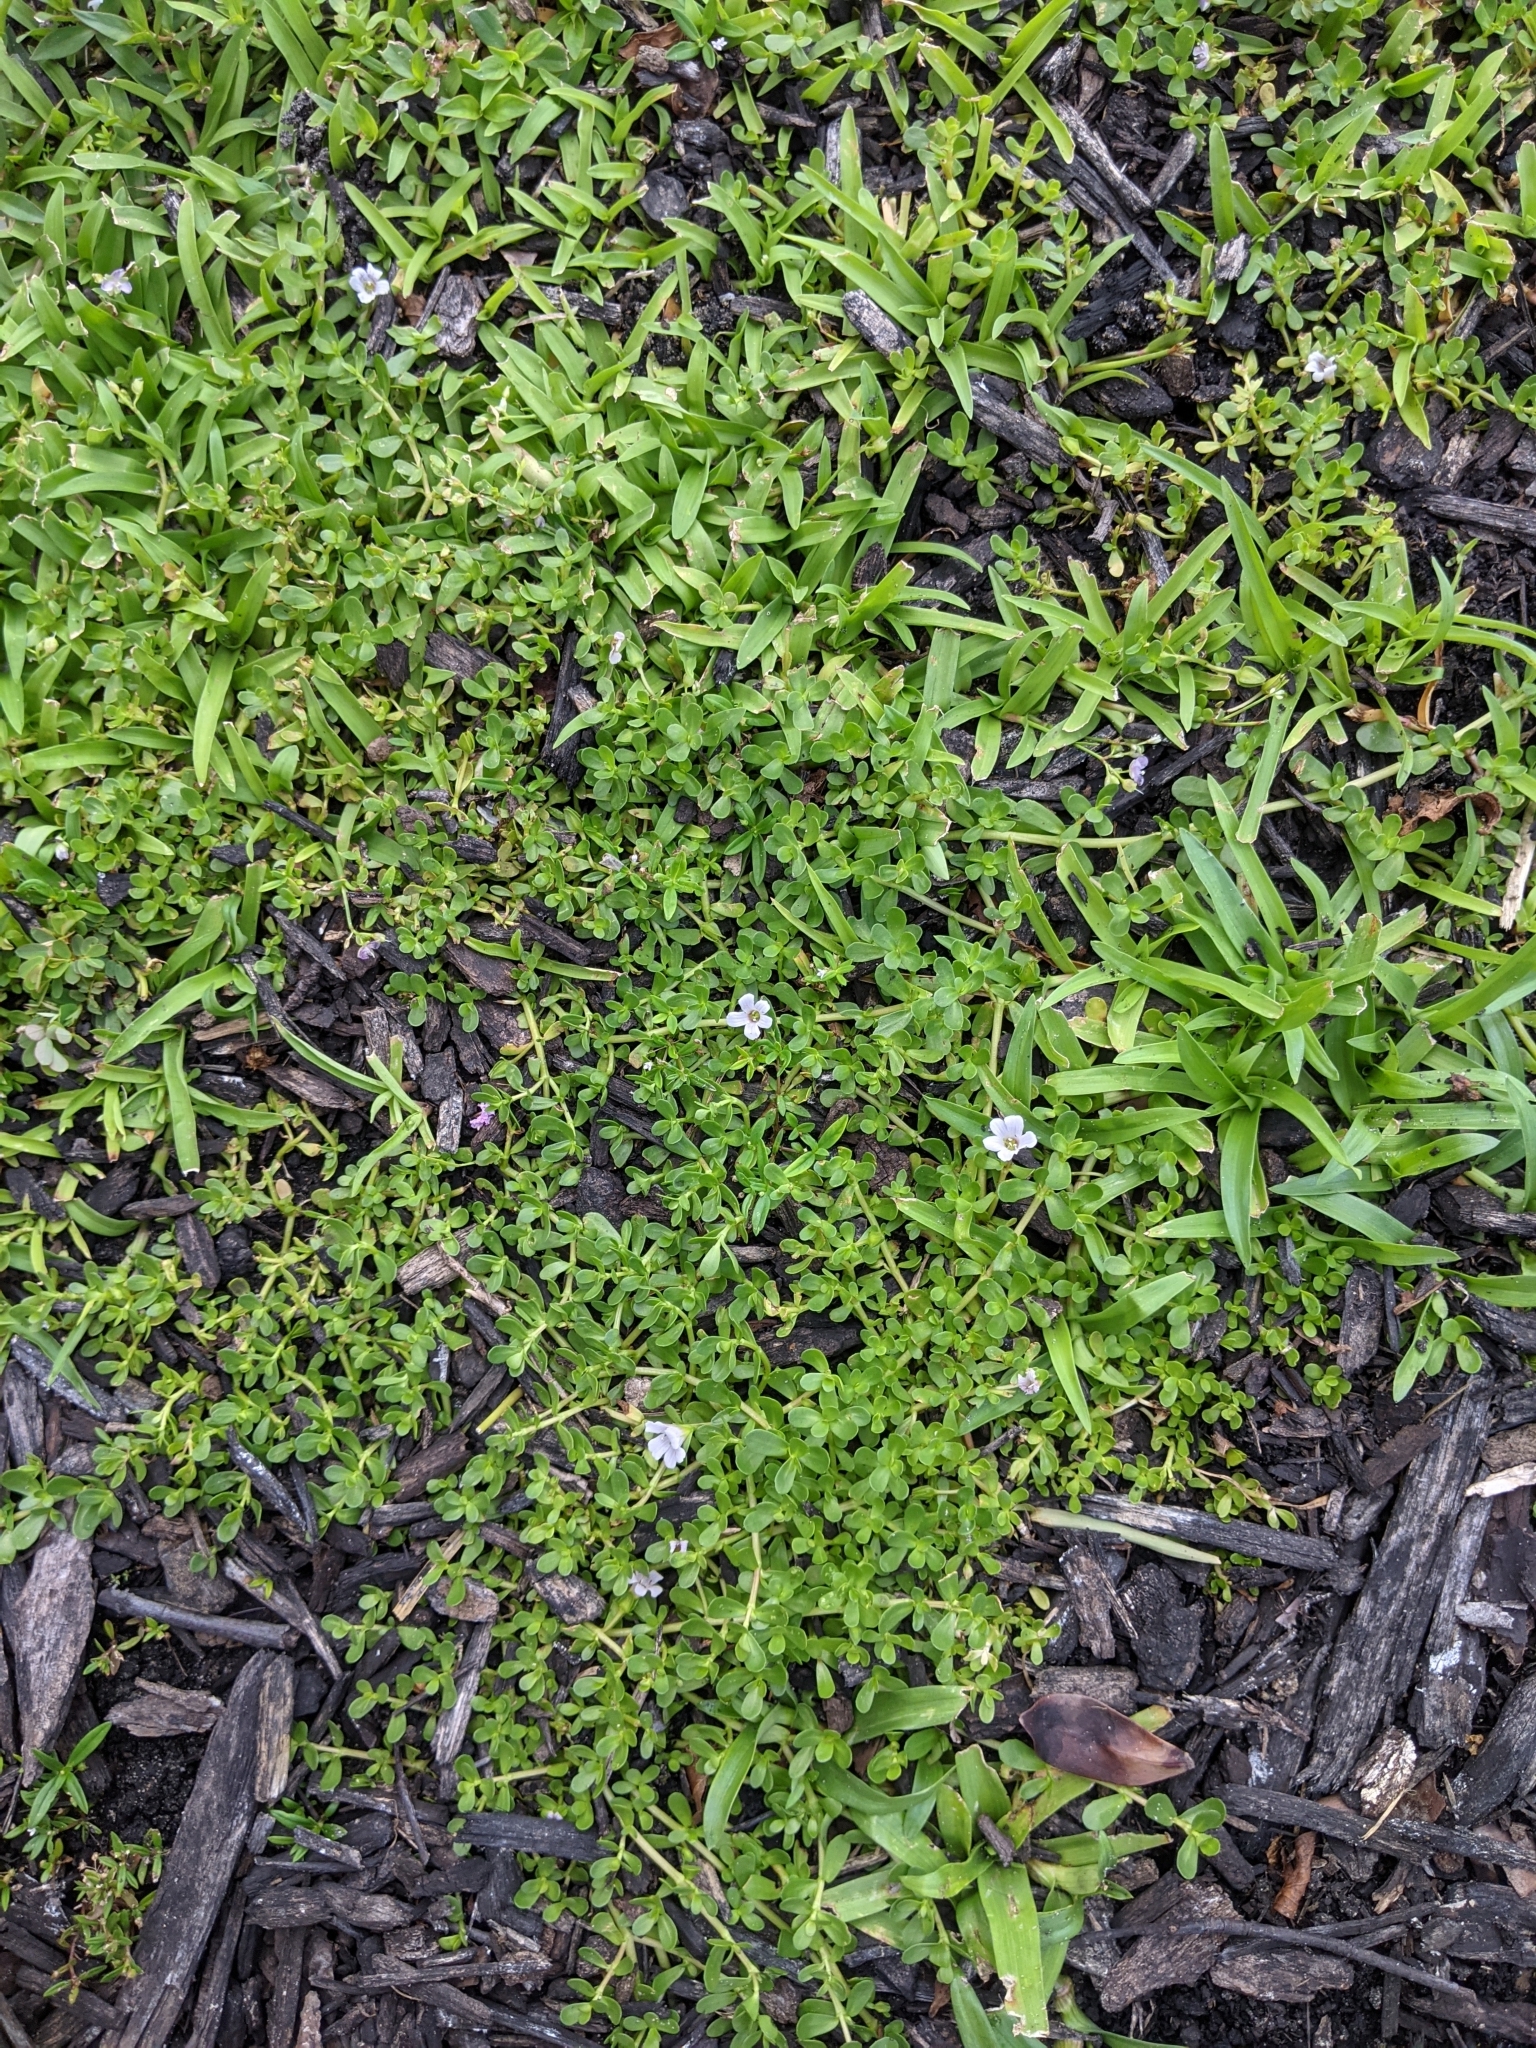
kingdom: Plantae
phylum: Tracheophyta
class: Magnoliopsida
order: Lamiales
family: Plantaginaceae
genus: Bacopa
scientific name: Bacopa monnieri
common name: Indian-pennywort
